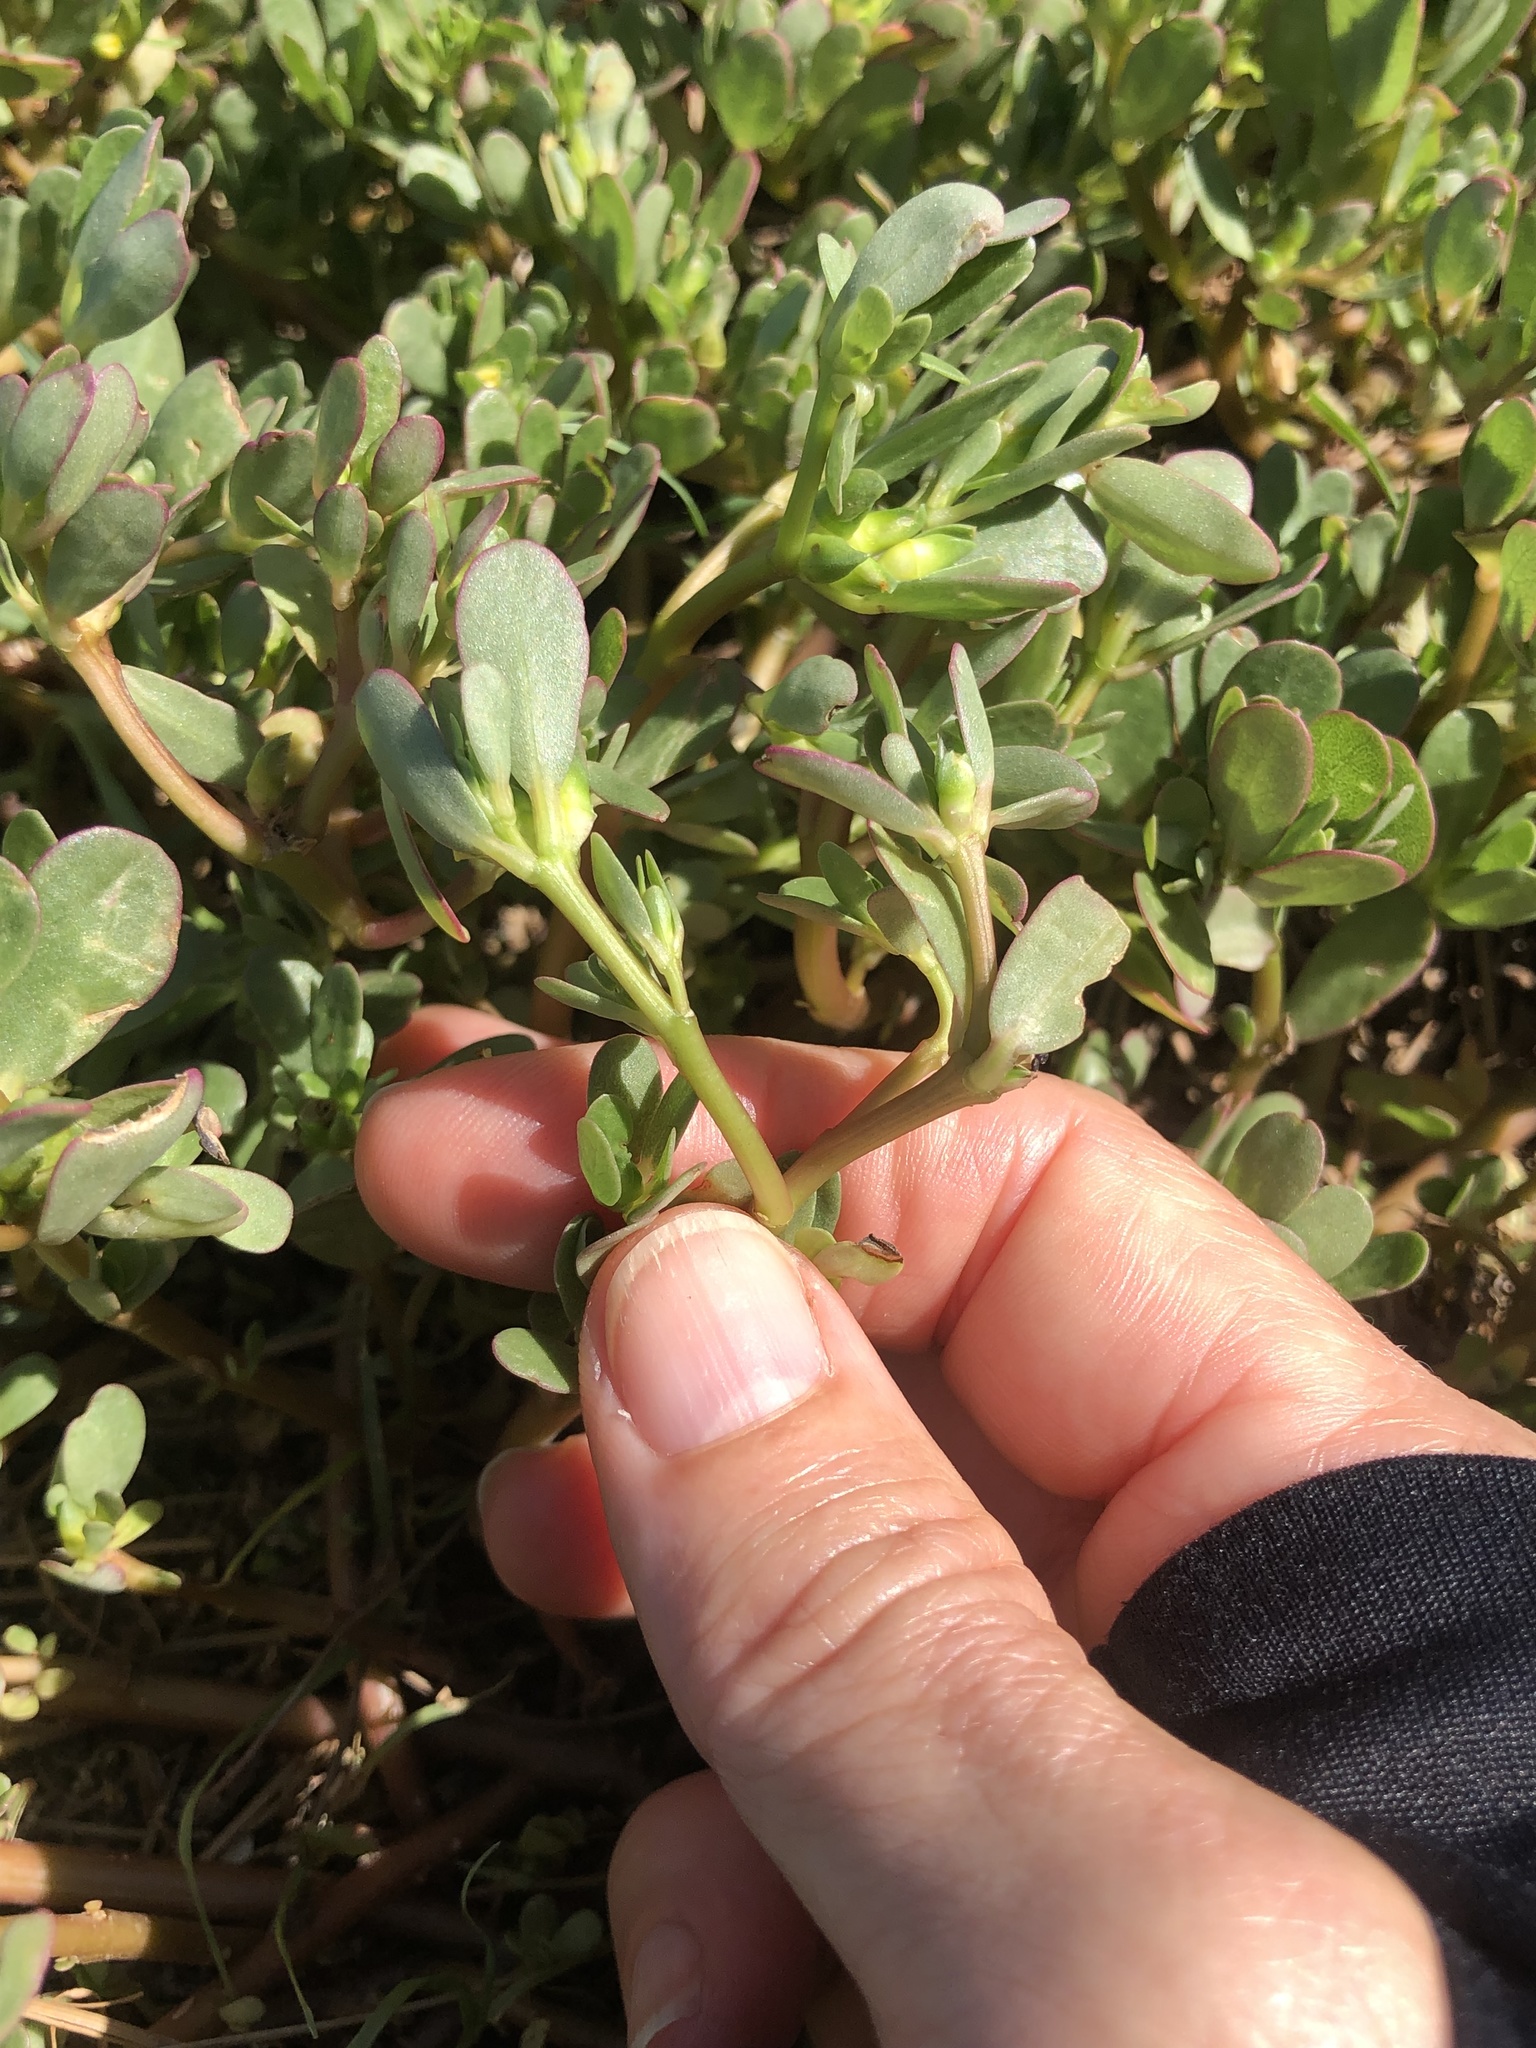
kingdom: Plantae
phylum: Tracheophyta
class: Magnoliopsida
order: Caryophyllales
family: Portulacaceae
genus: Portulaca
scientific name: Portulaca oleracea
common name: Common purslane
